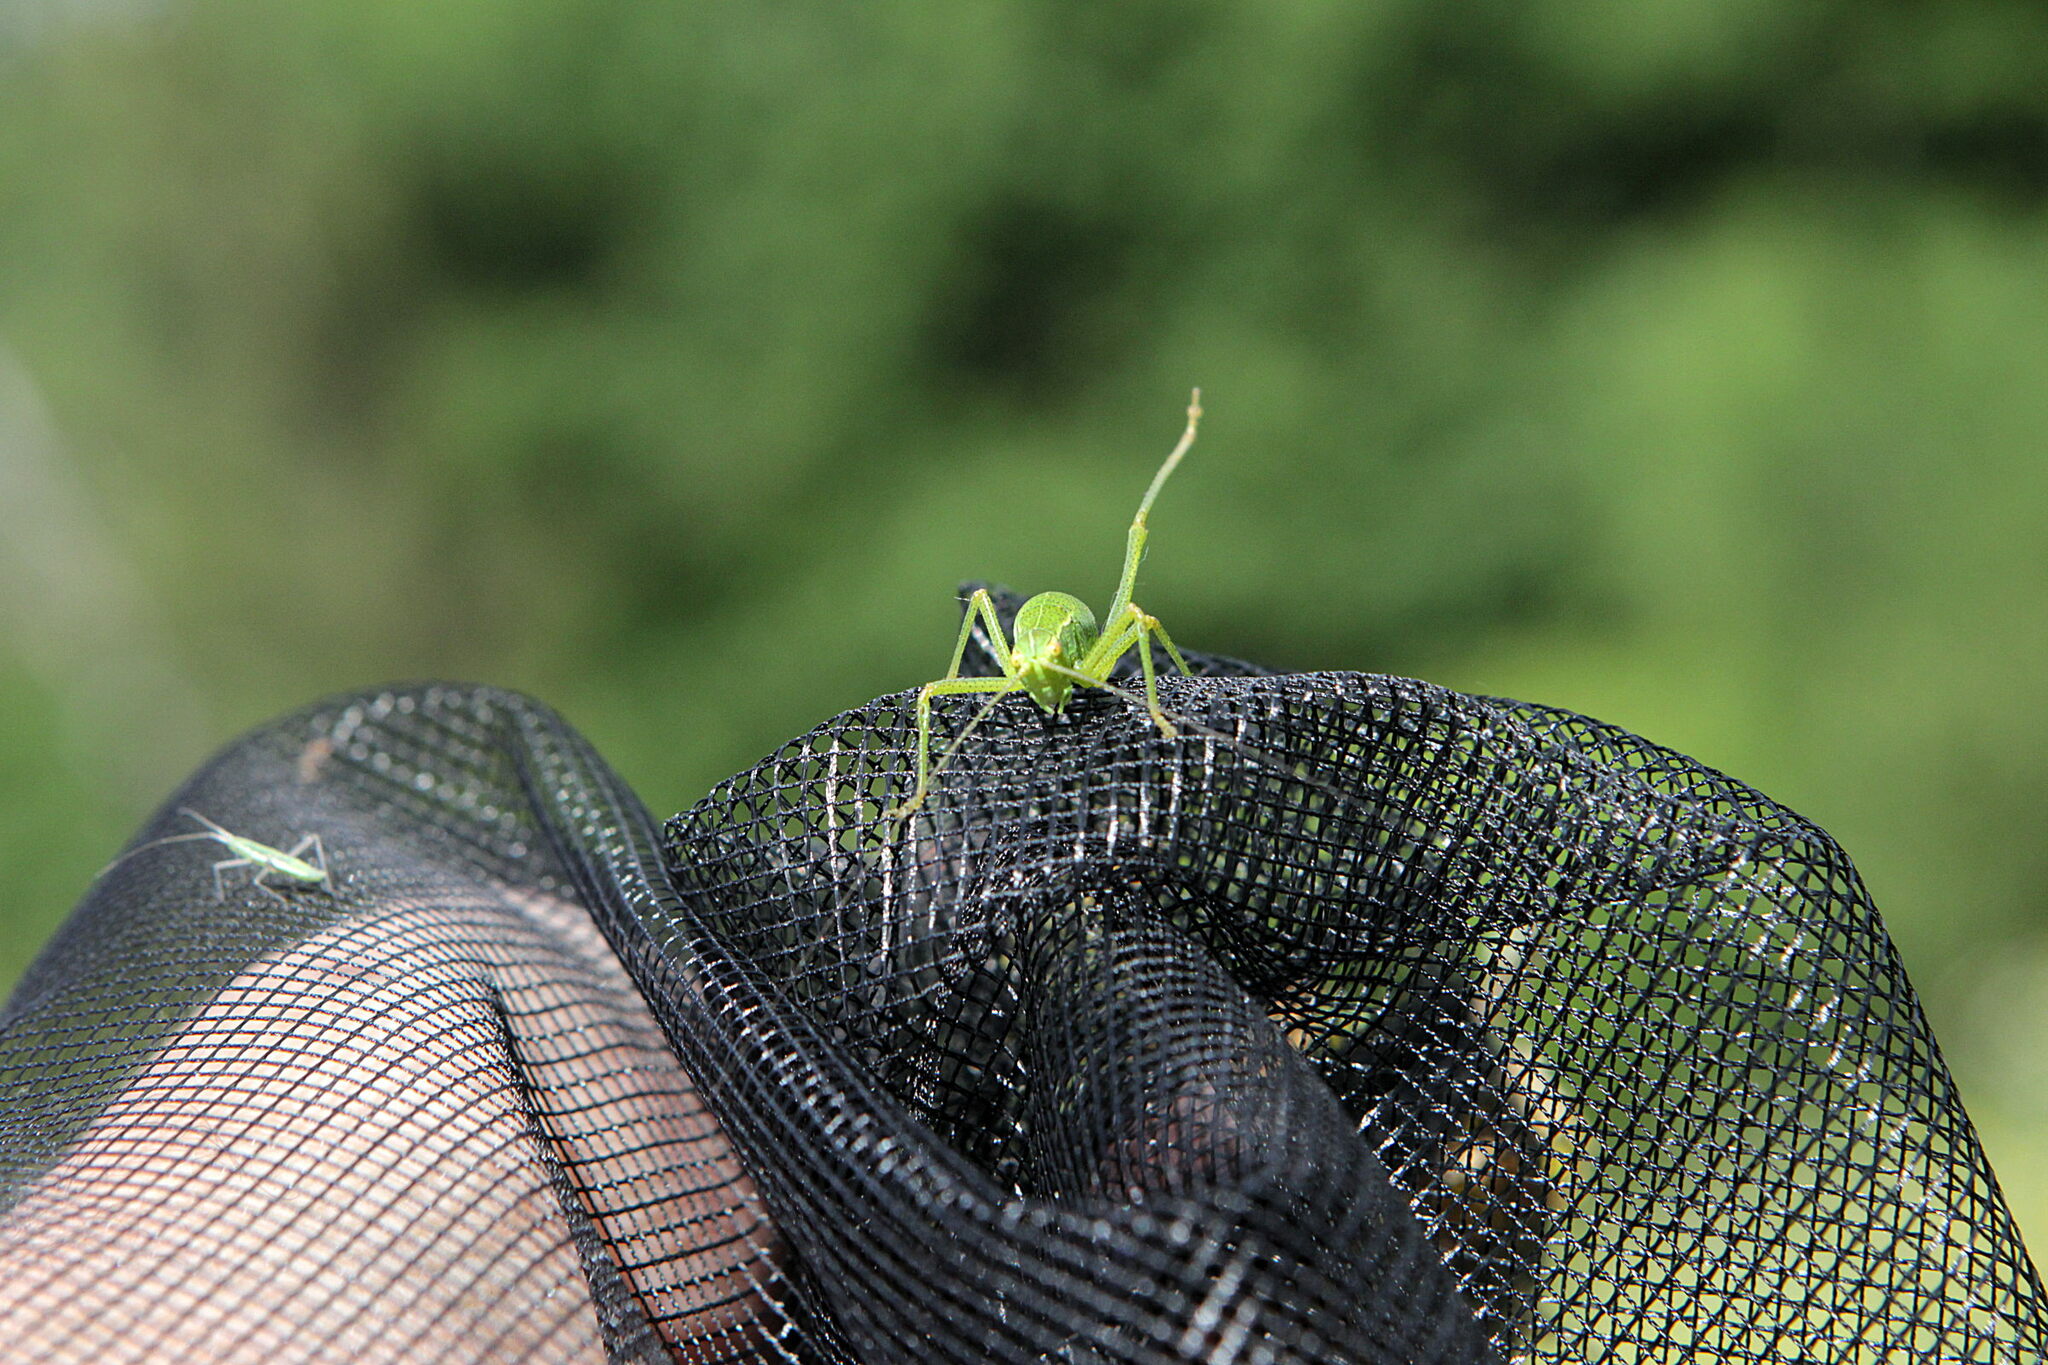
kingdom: Animalia
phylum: Arthropoda
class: Insecta
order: Orthoptera
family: Tettigoniidae
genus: Leptophyes
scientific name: Leptophyes punctatissima
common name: Speckled bush-cricket
